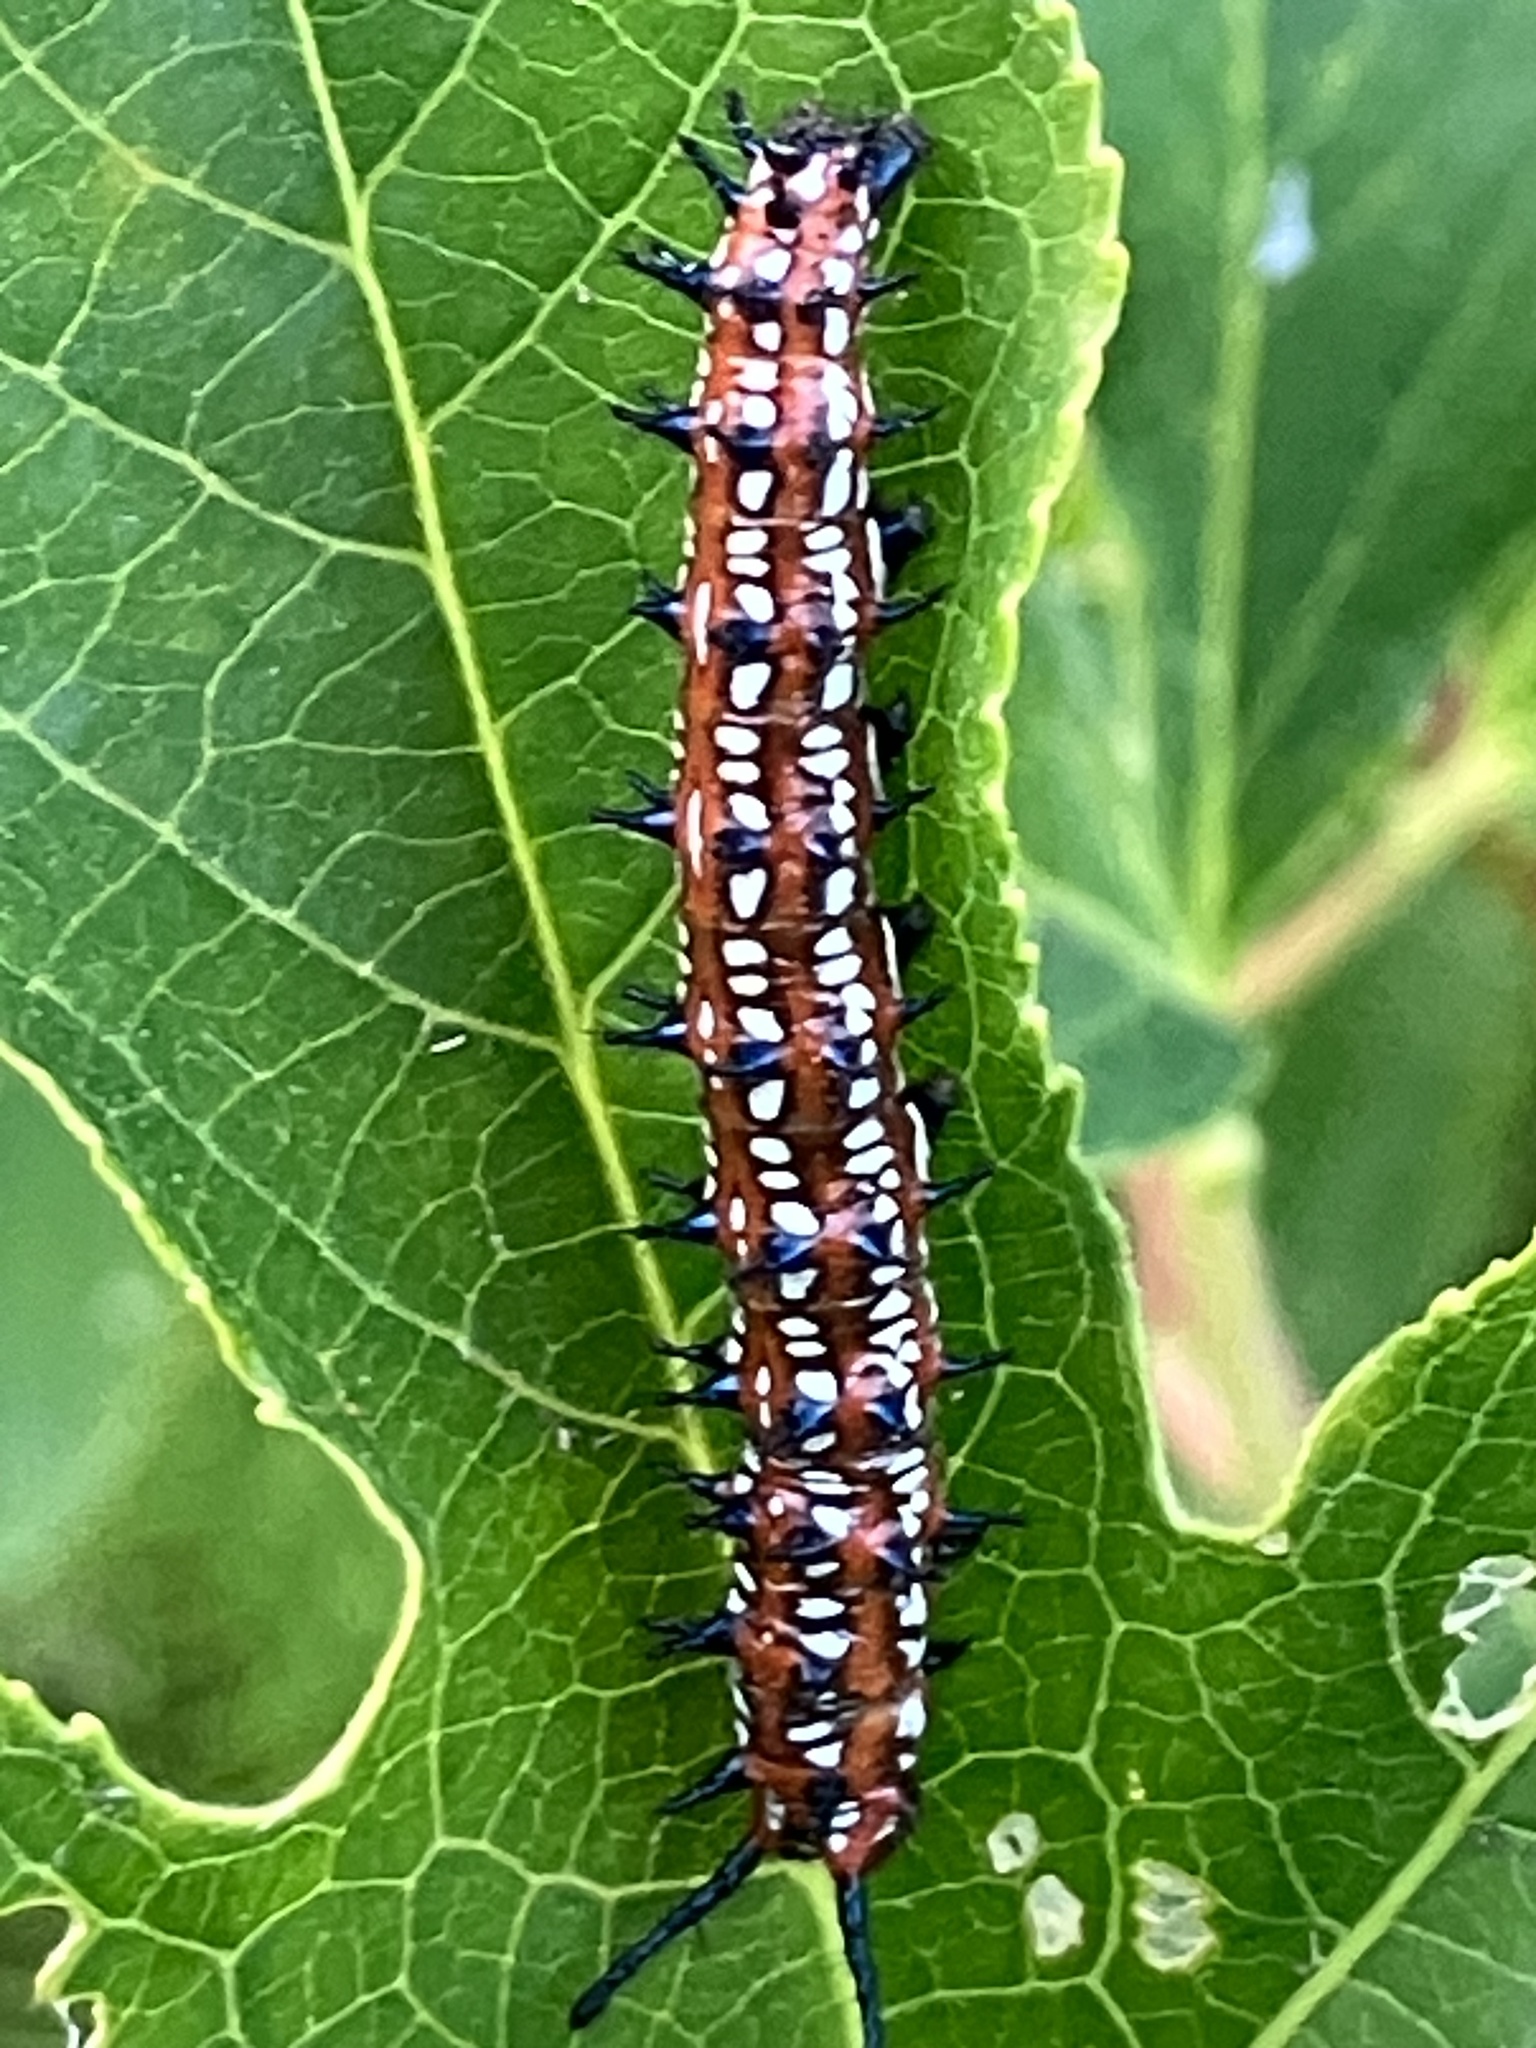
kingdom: Animalia
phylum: Arthropoda
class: Insecta
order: Lepidoptera
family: Nymphalidae
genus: Euptoieta
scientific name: Euptoieta claudia
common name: Variegated fritillary
